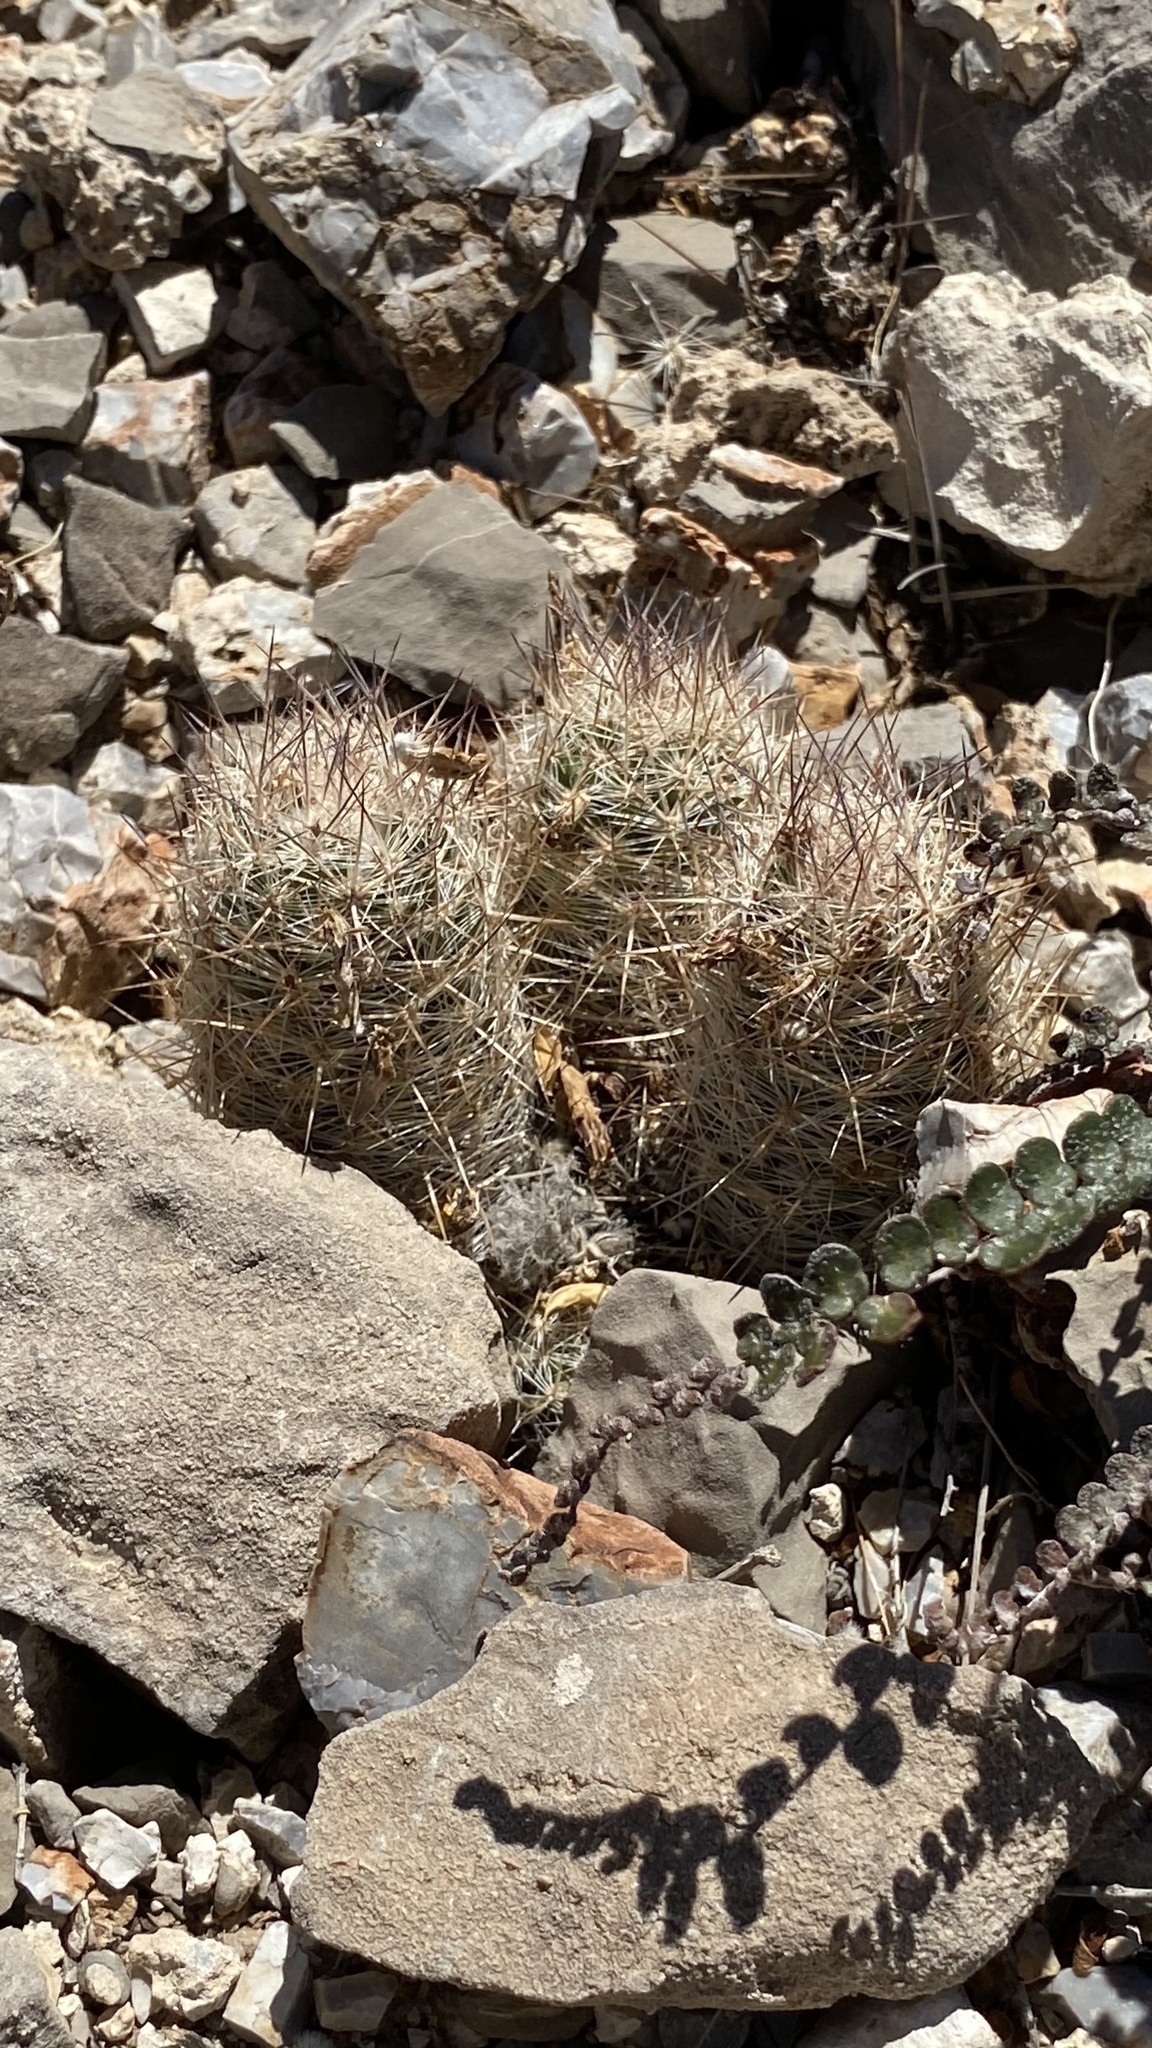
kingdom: Plantae
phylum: Tracheophyta
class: Magnoliopsida
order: Caryophyllales
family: Cactaceae
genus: Pelecyphora
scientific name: Pelecyphora tuberculosa
